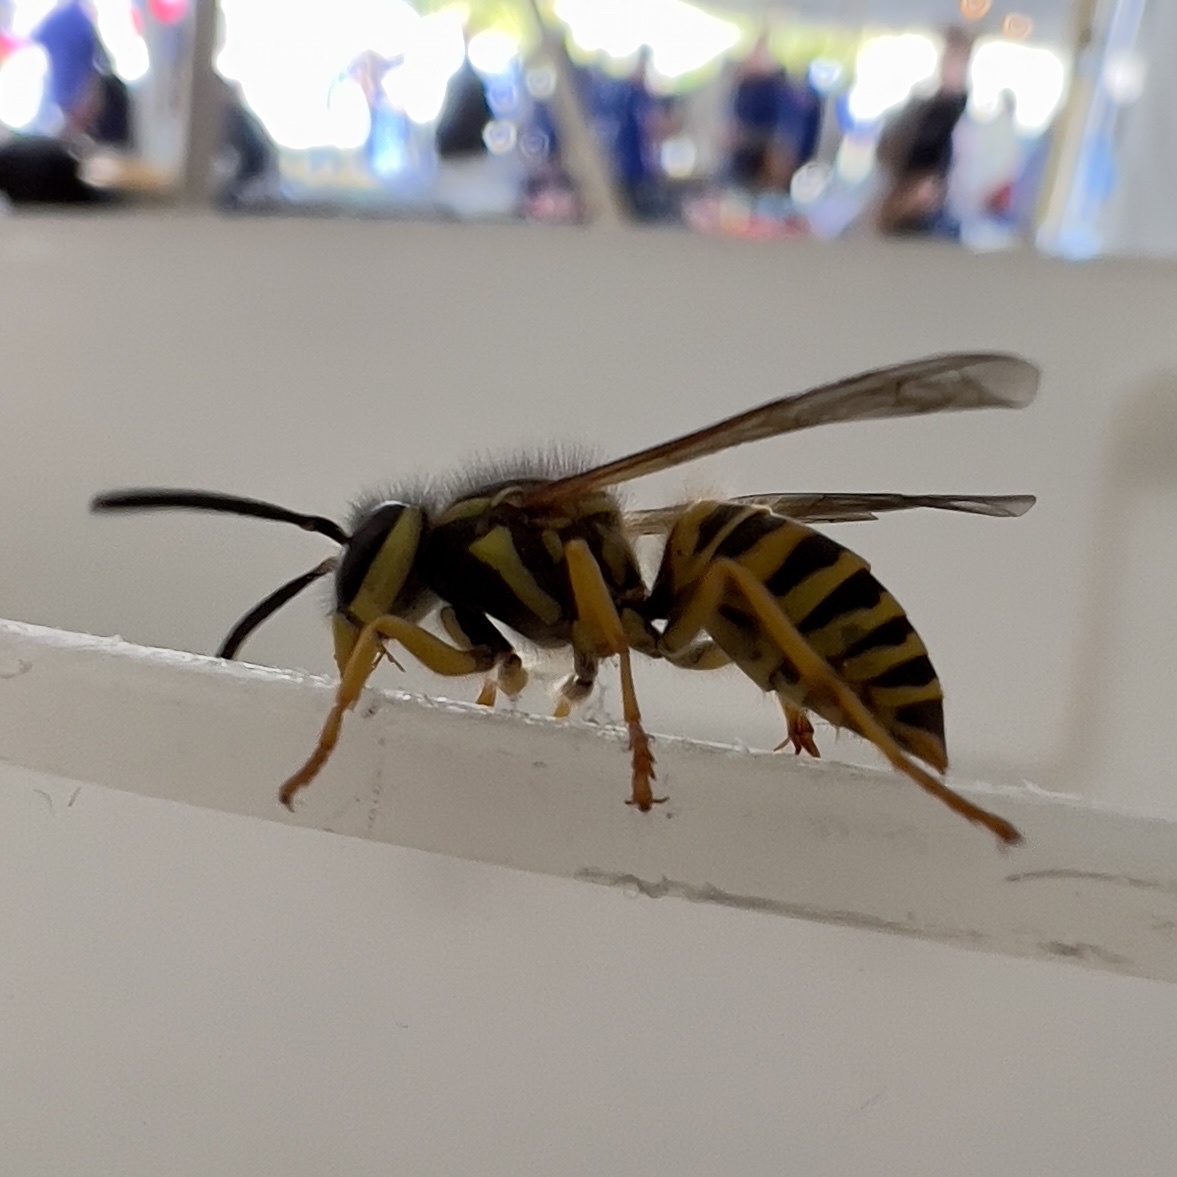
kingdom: Animalia
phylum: Arthropoda
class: Insecta
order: Hymenoptera
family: Vespidae
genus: Vespula
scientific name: Vespula squamosa
